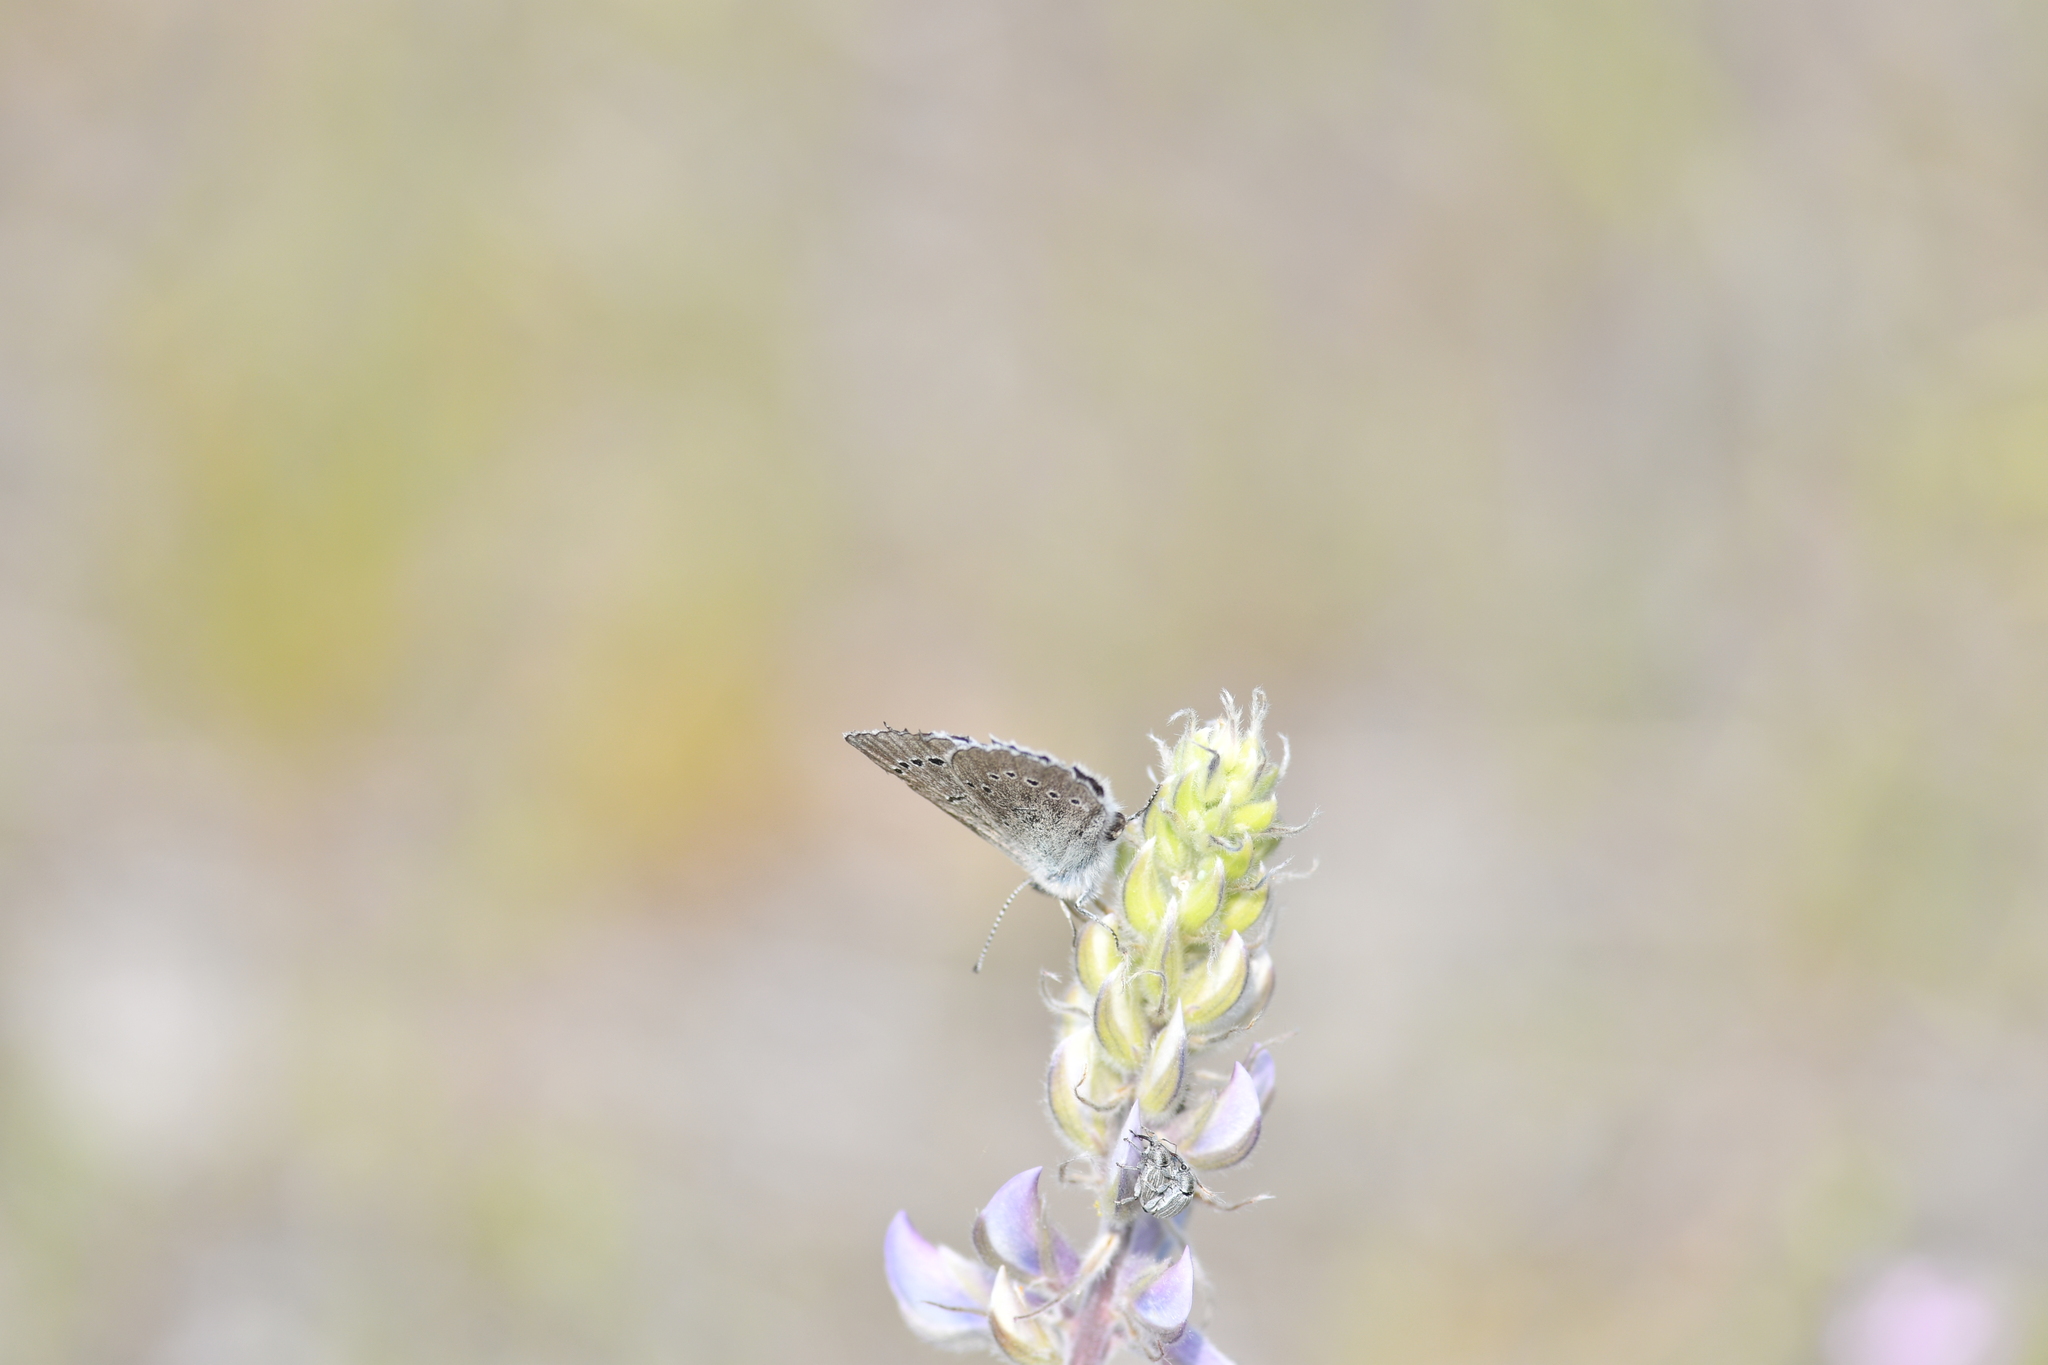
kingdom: Animalia
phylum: Arthropoda
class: Insecta
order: Lepidoptera
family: Lycaenidae
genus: Glaucopsyche
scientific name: Glaucopsyche lygdamus
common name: Silvery blue
